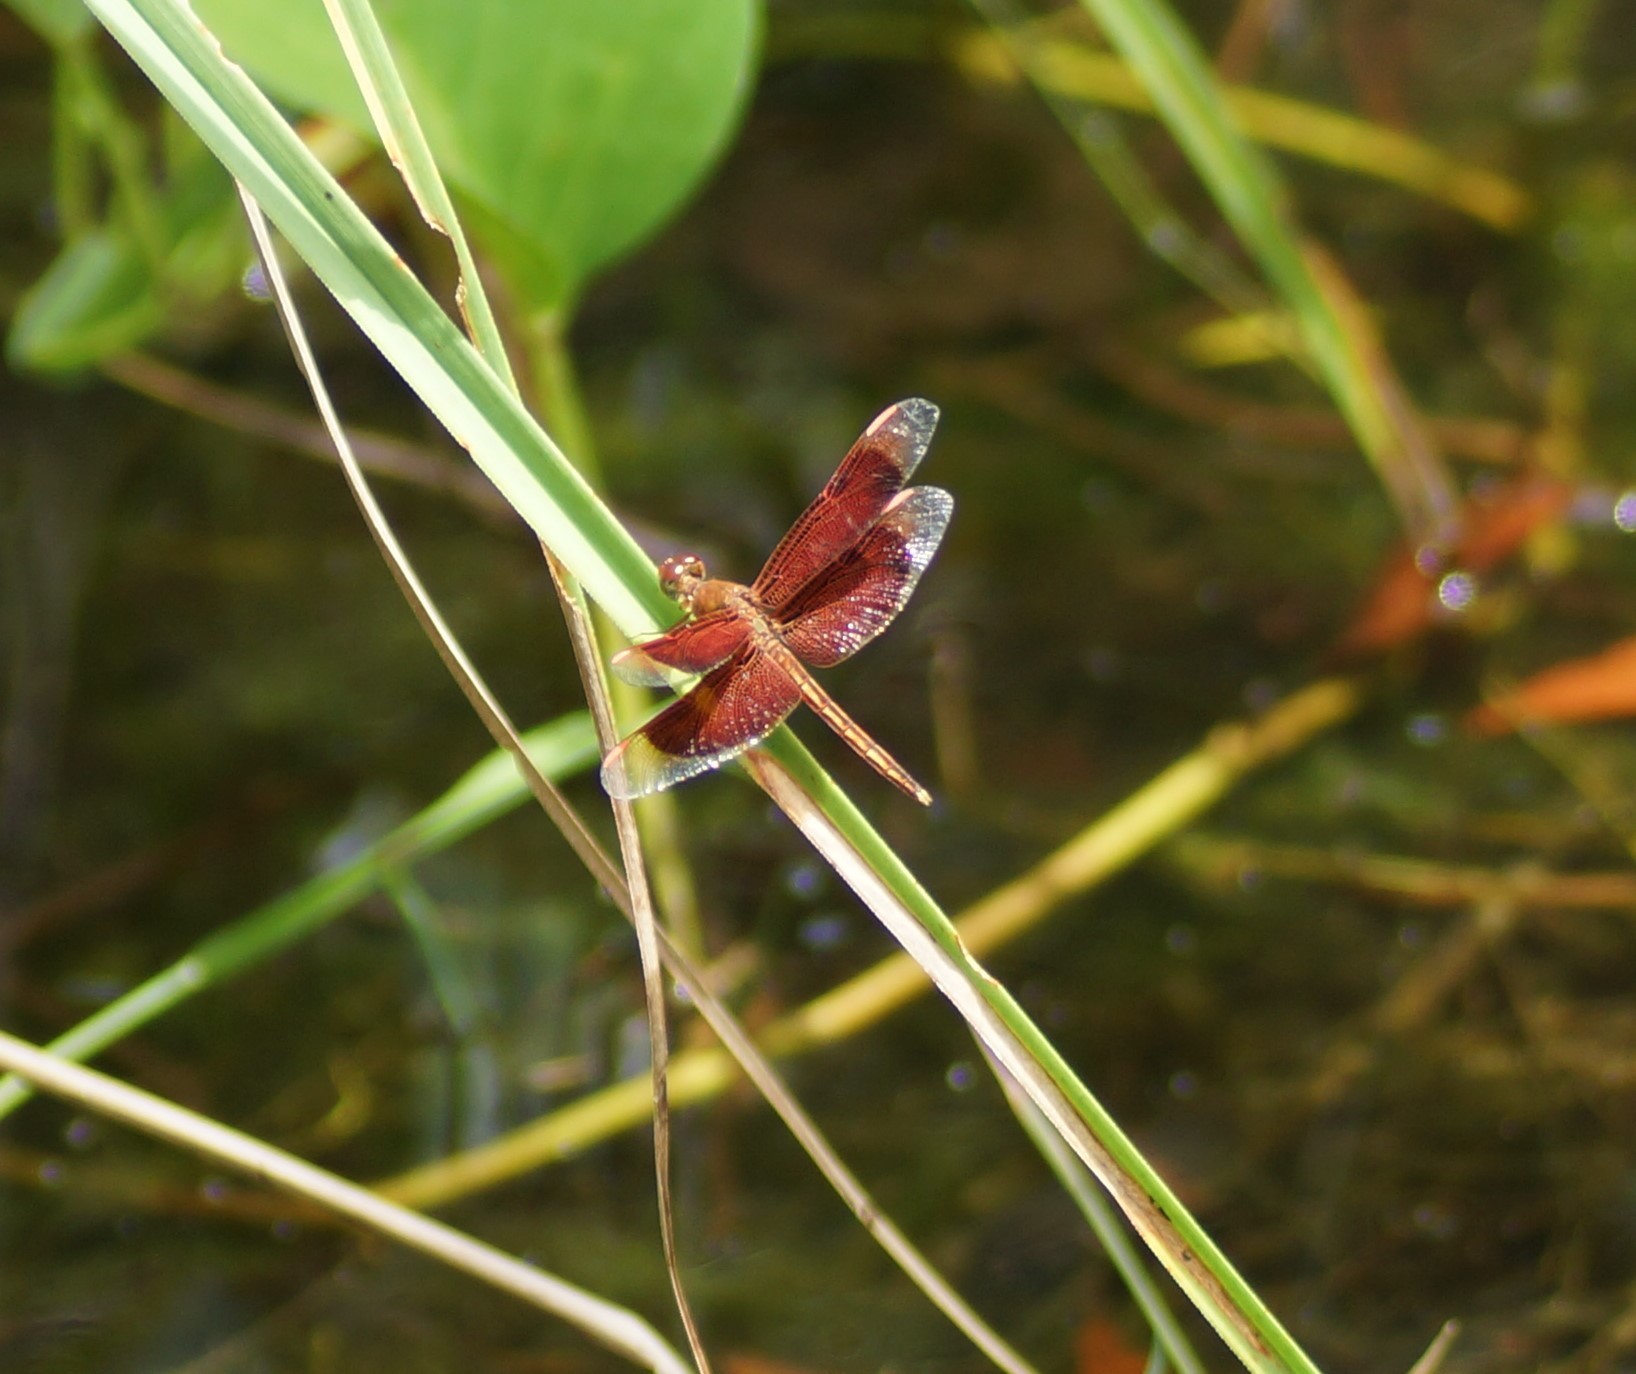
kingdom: Animalia
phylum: Arthropoda
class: Insecta
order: Odonata
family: Libellulidae
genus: Neurothemis
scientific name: Neurothemis stigmatizans
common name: Painted grasshawk
